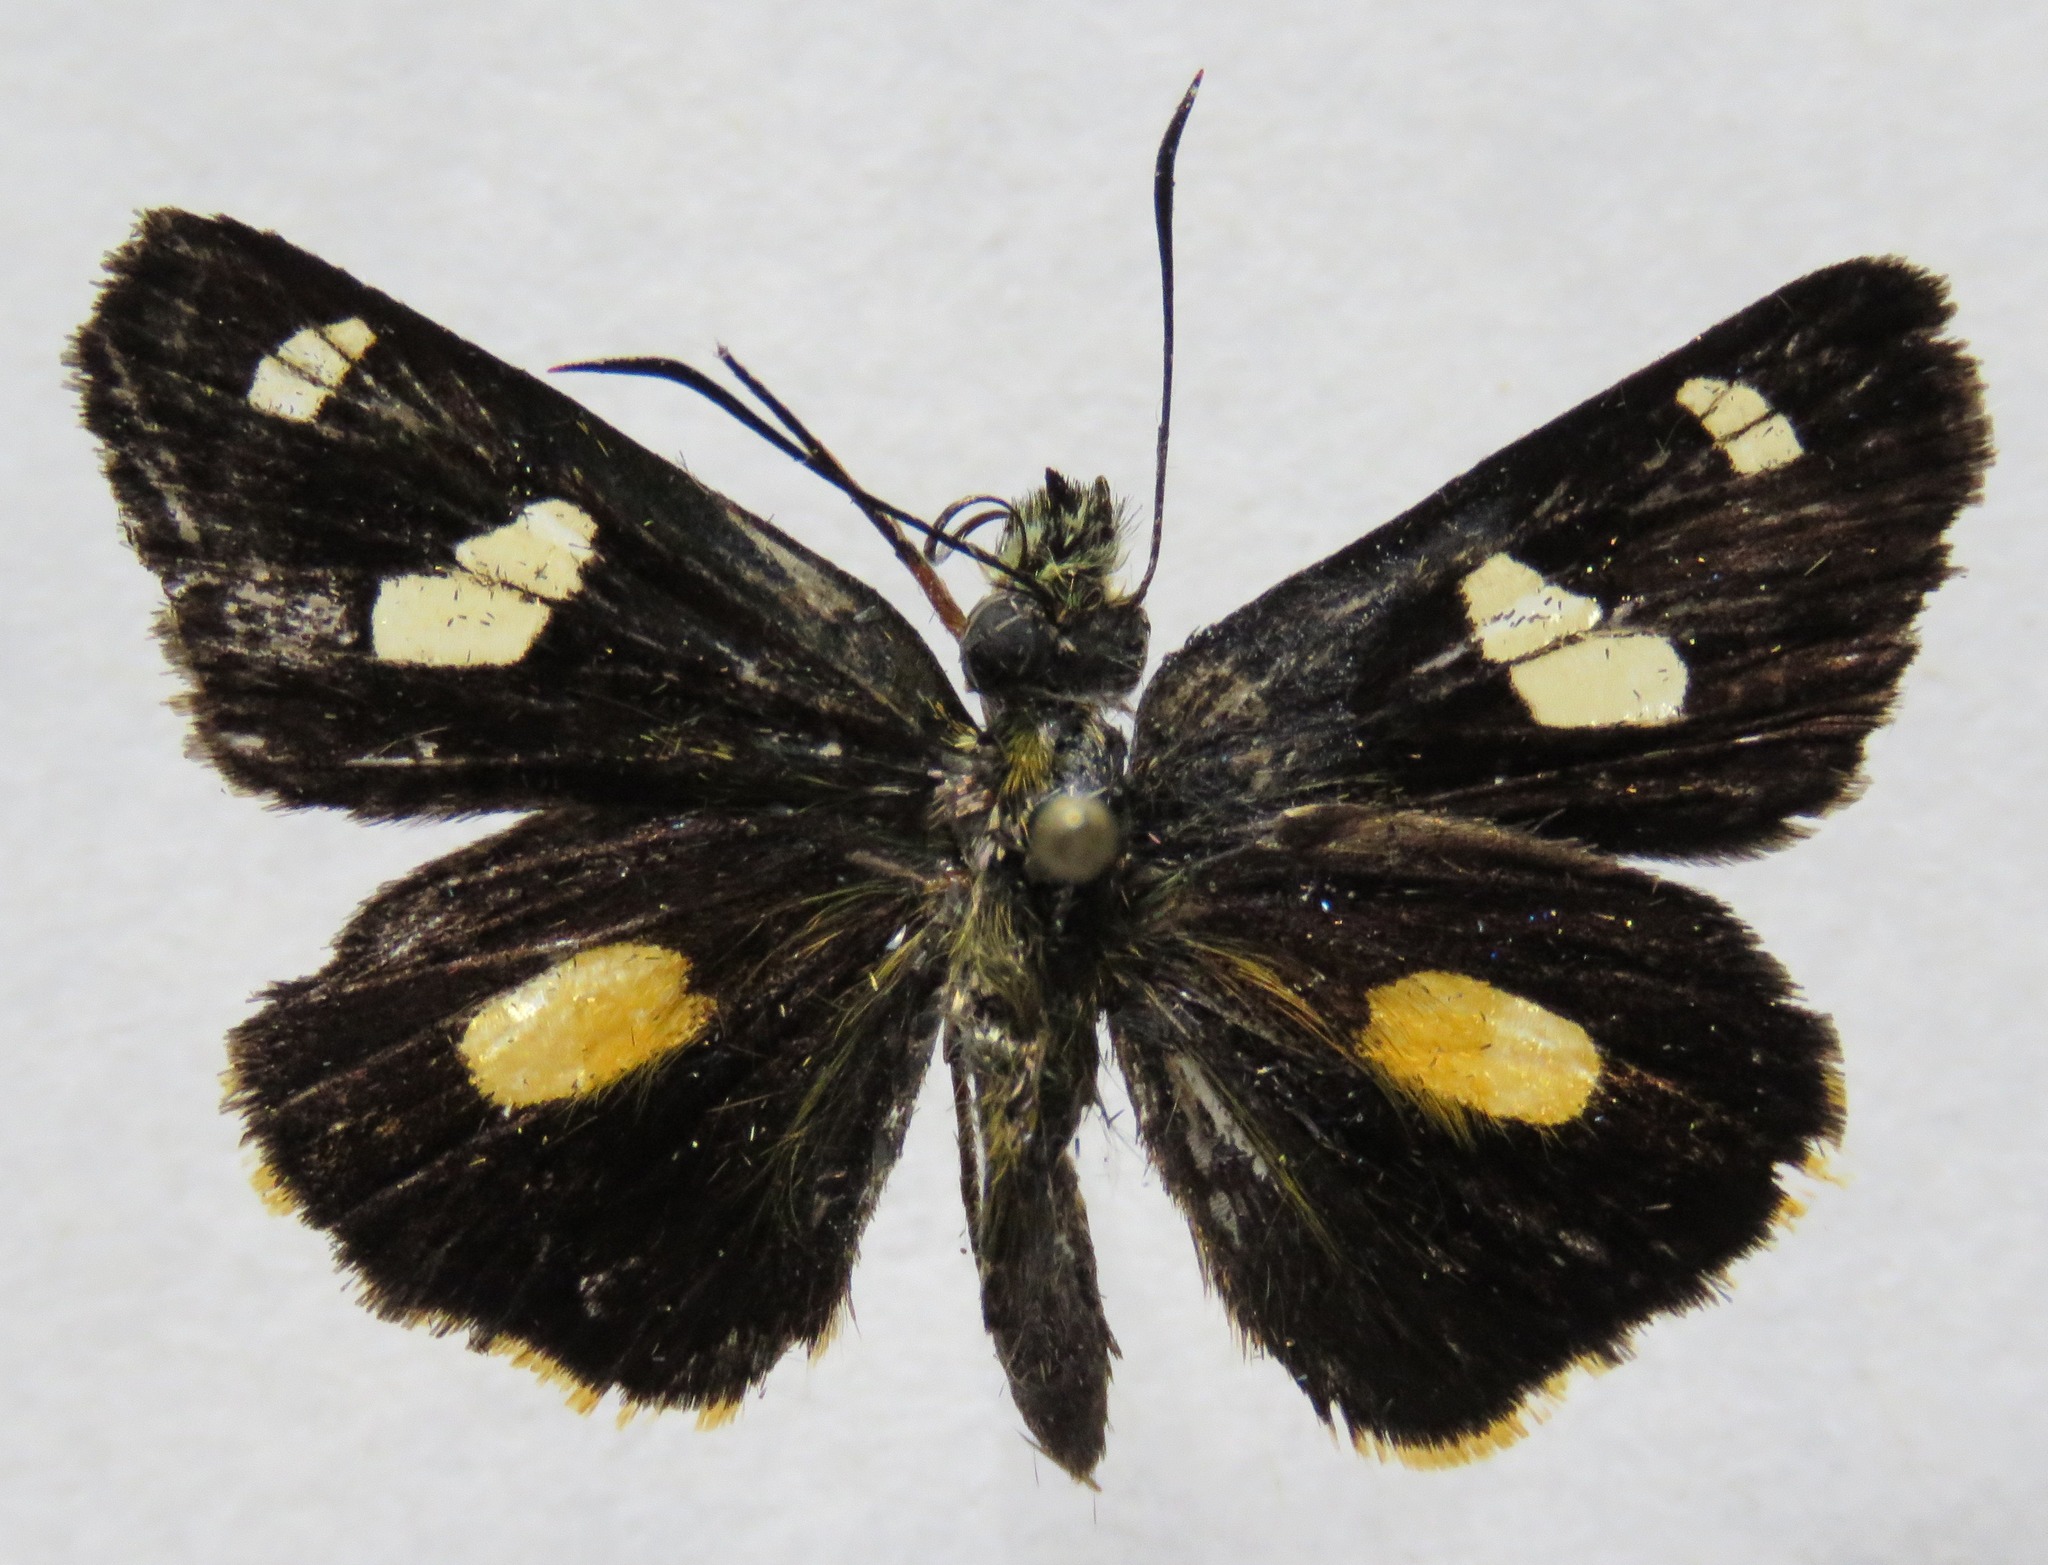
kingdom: Animalia
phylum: Arthropoda
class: Insecta
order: Lepidoptera
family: Hesperiidae
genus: Dalla
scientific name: Dalla ramirezi
